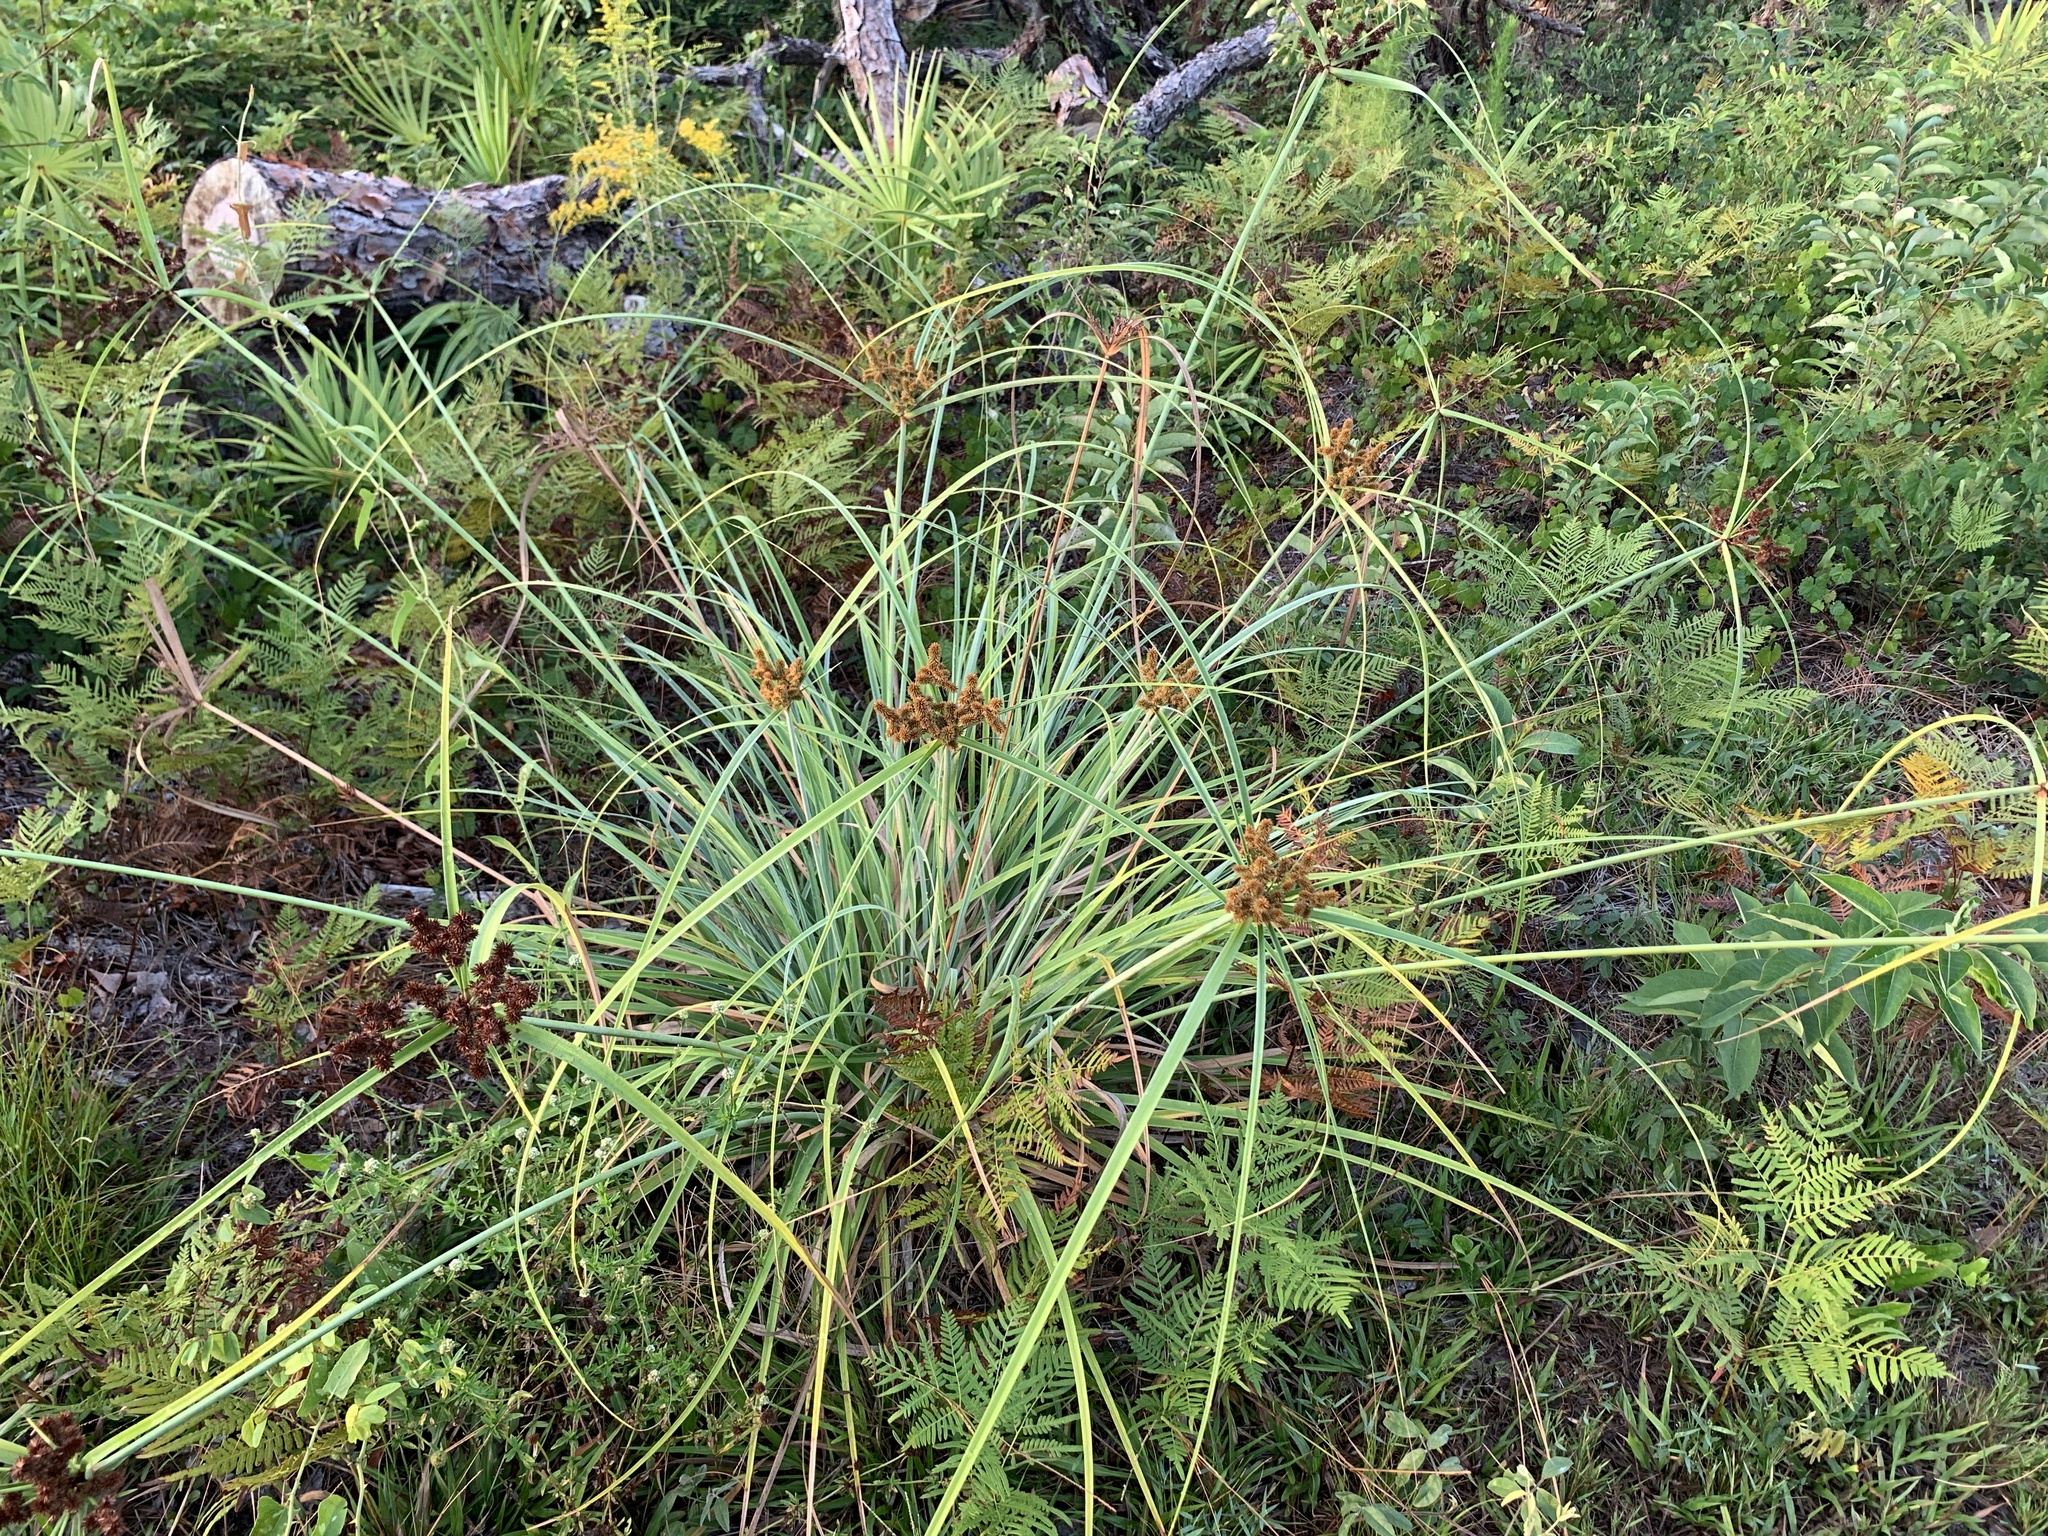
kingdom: Plantae
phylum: Tracheophyta
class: Liliopsida
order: Poales
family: Cyperaceae
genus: Cyperus
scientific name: Cyperus ligularis
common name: Swamp flat sedge
